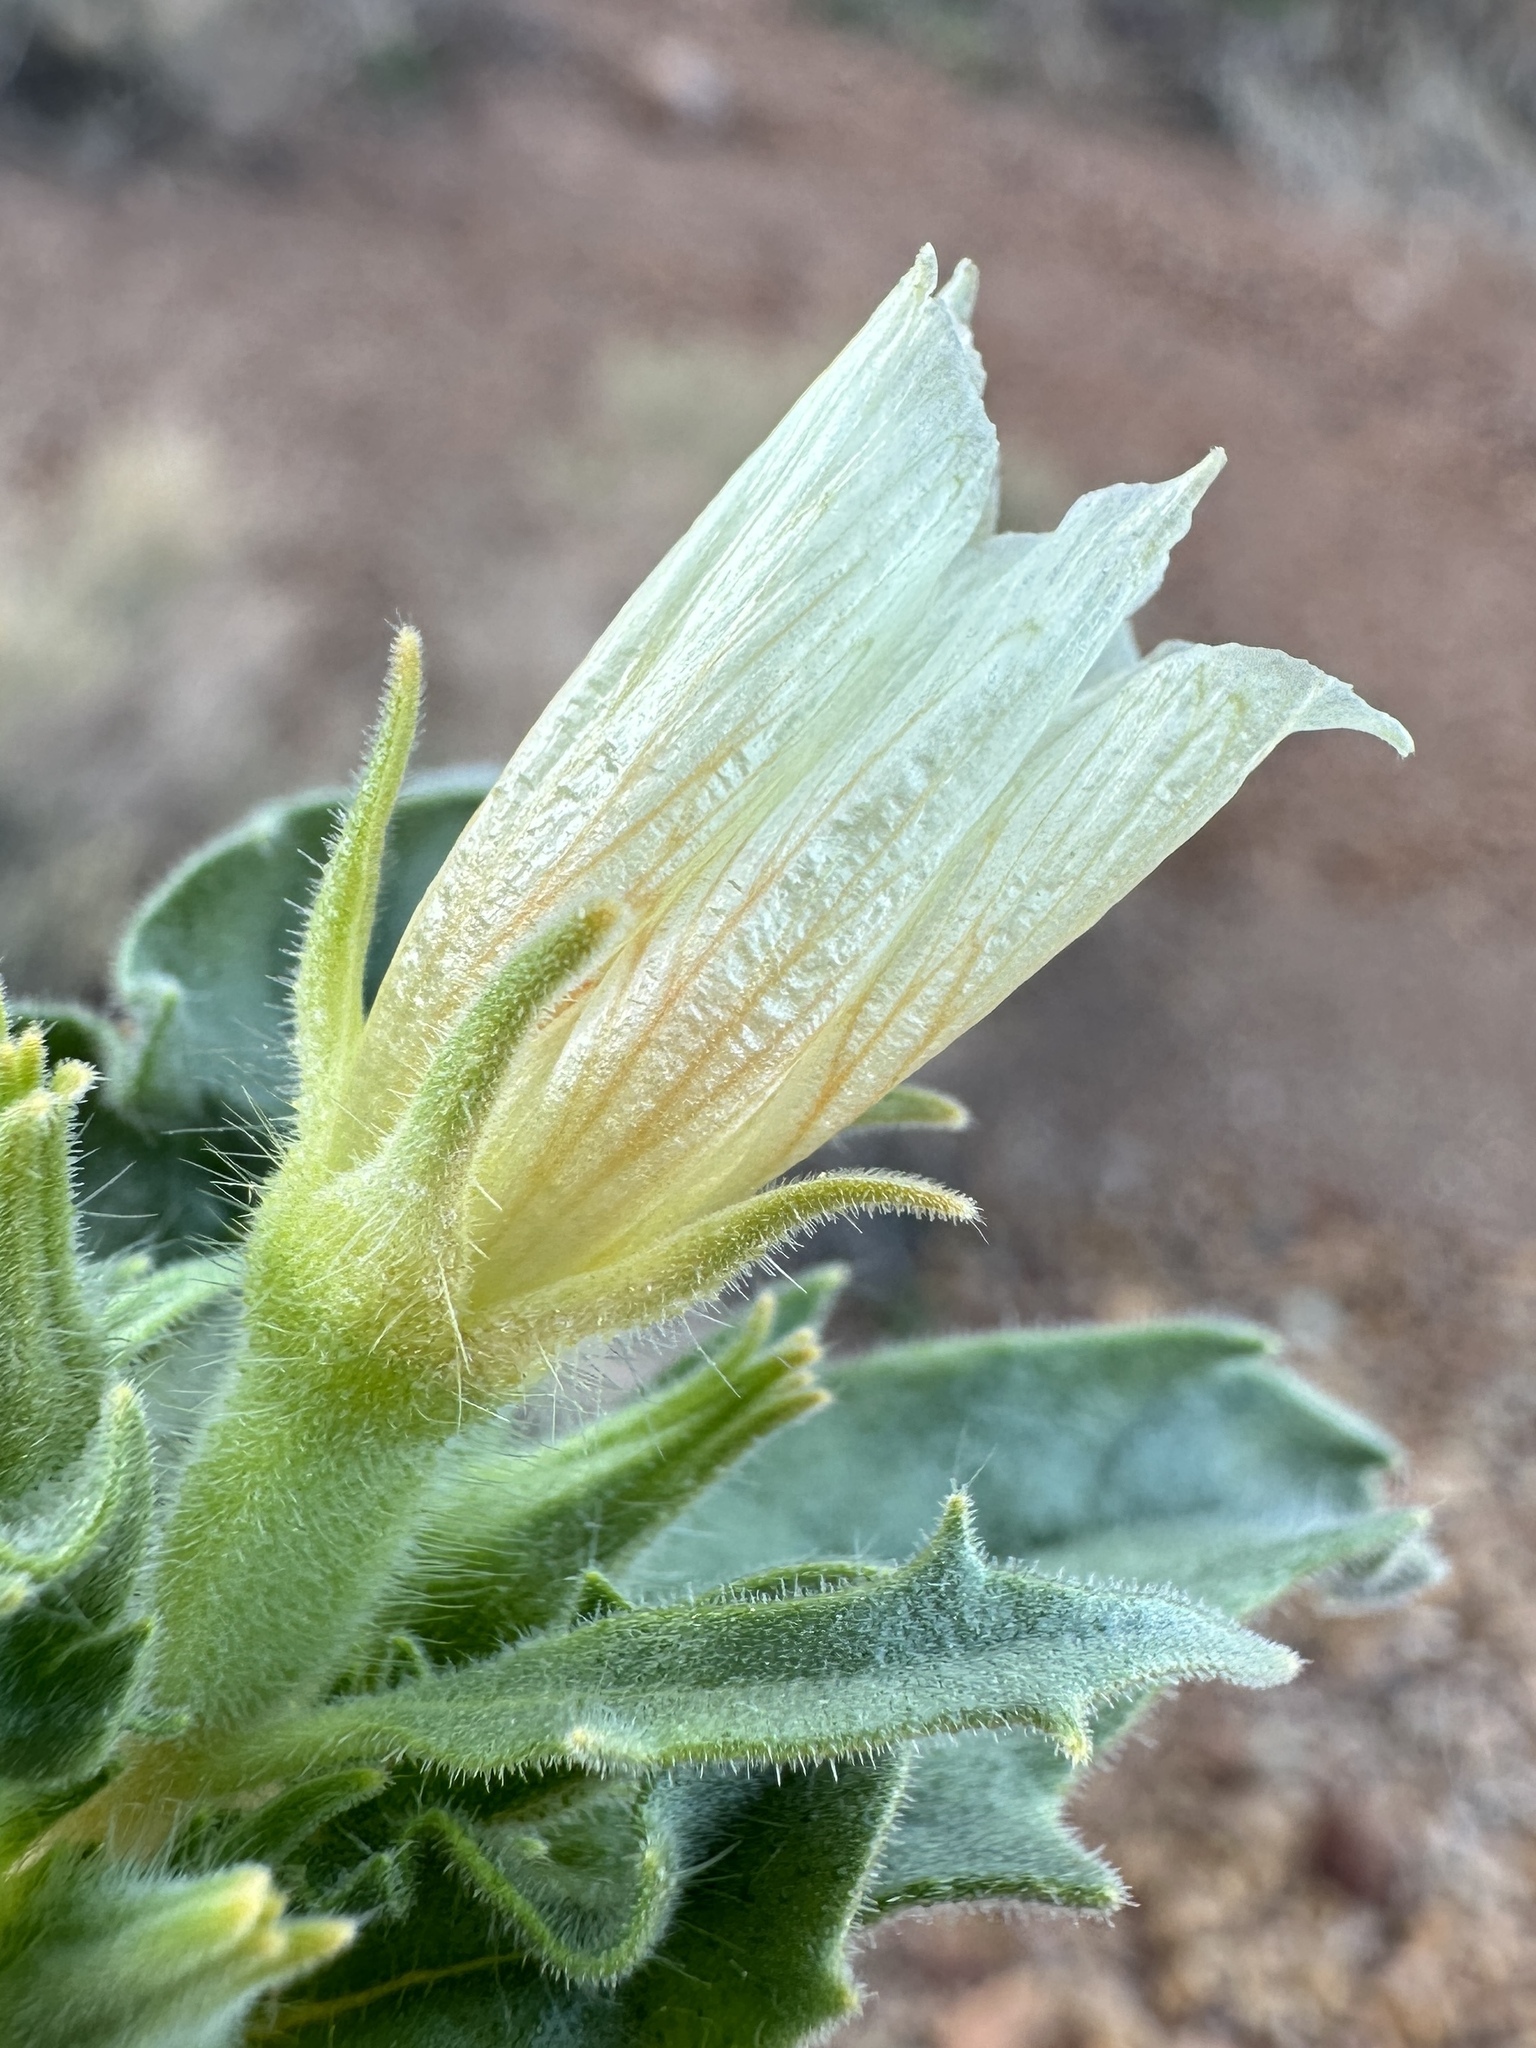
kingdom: Plantae
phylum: Tracheophyta
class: Magnoliopsida
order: Cornales
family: Loasaceae
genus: Mentzelia
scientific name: Mentzelia tridentata
